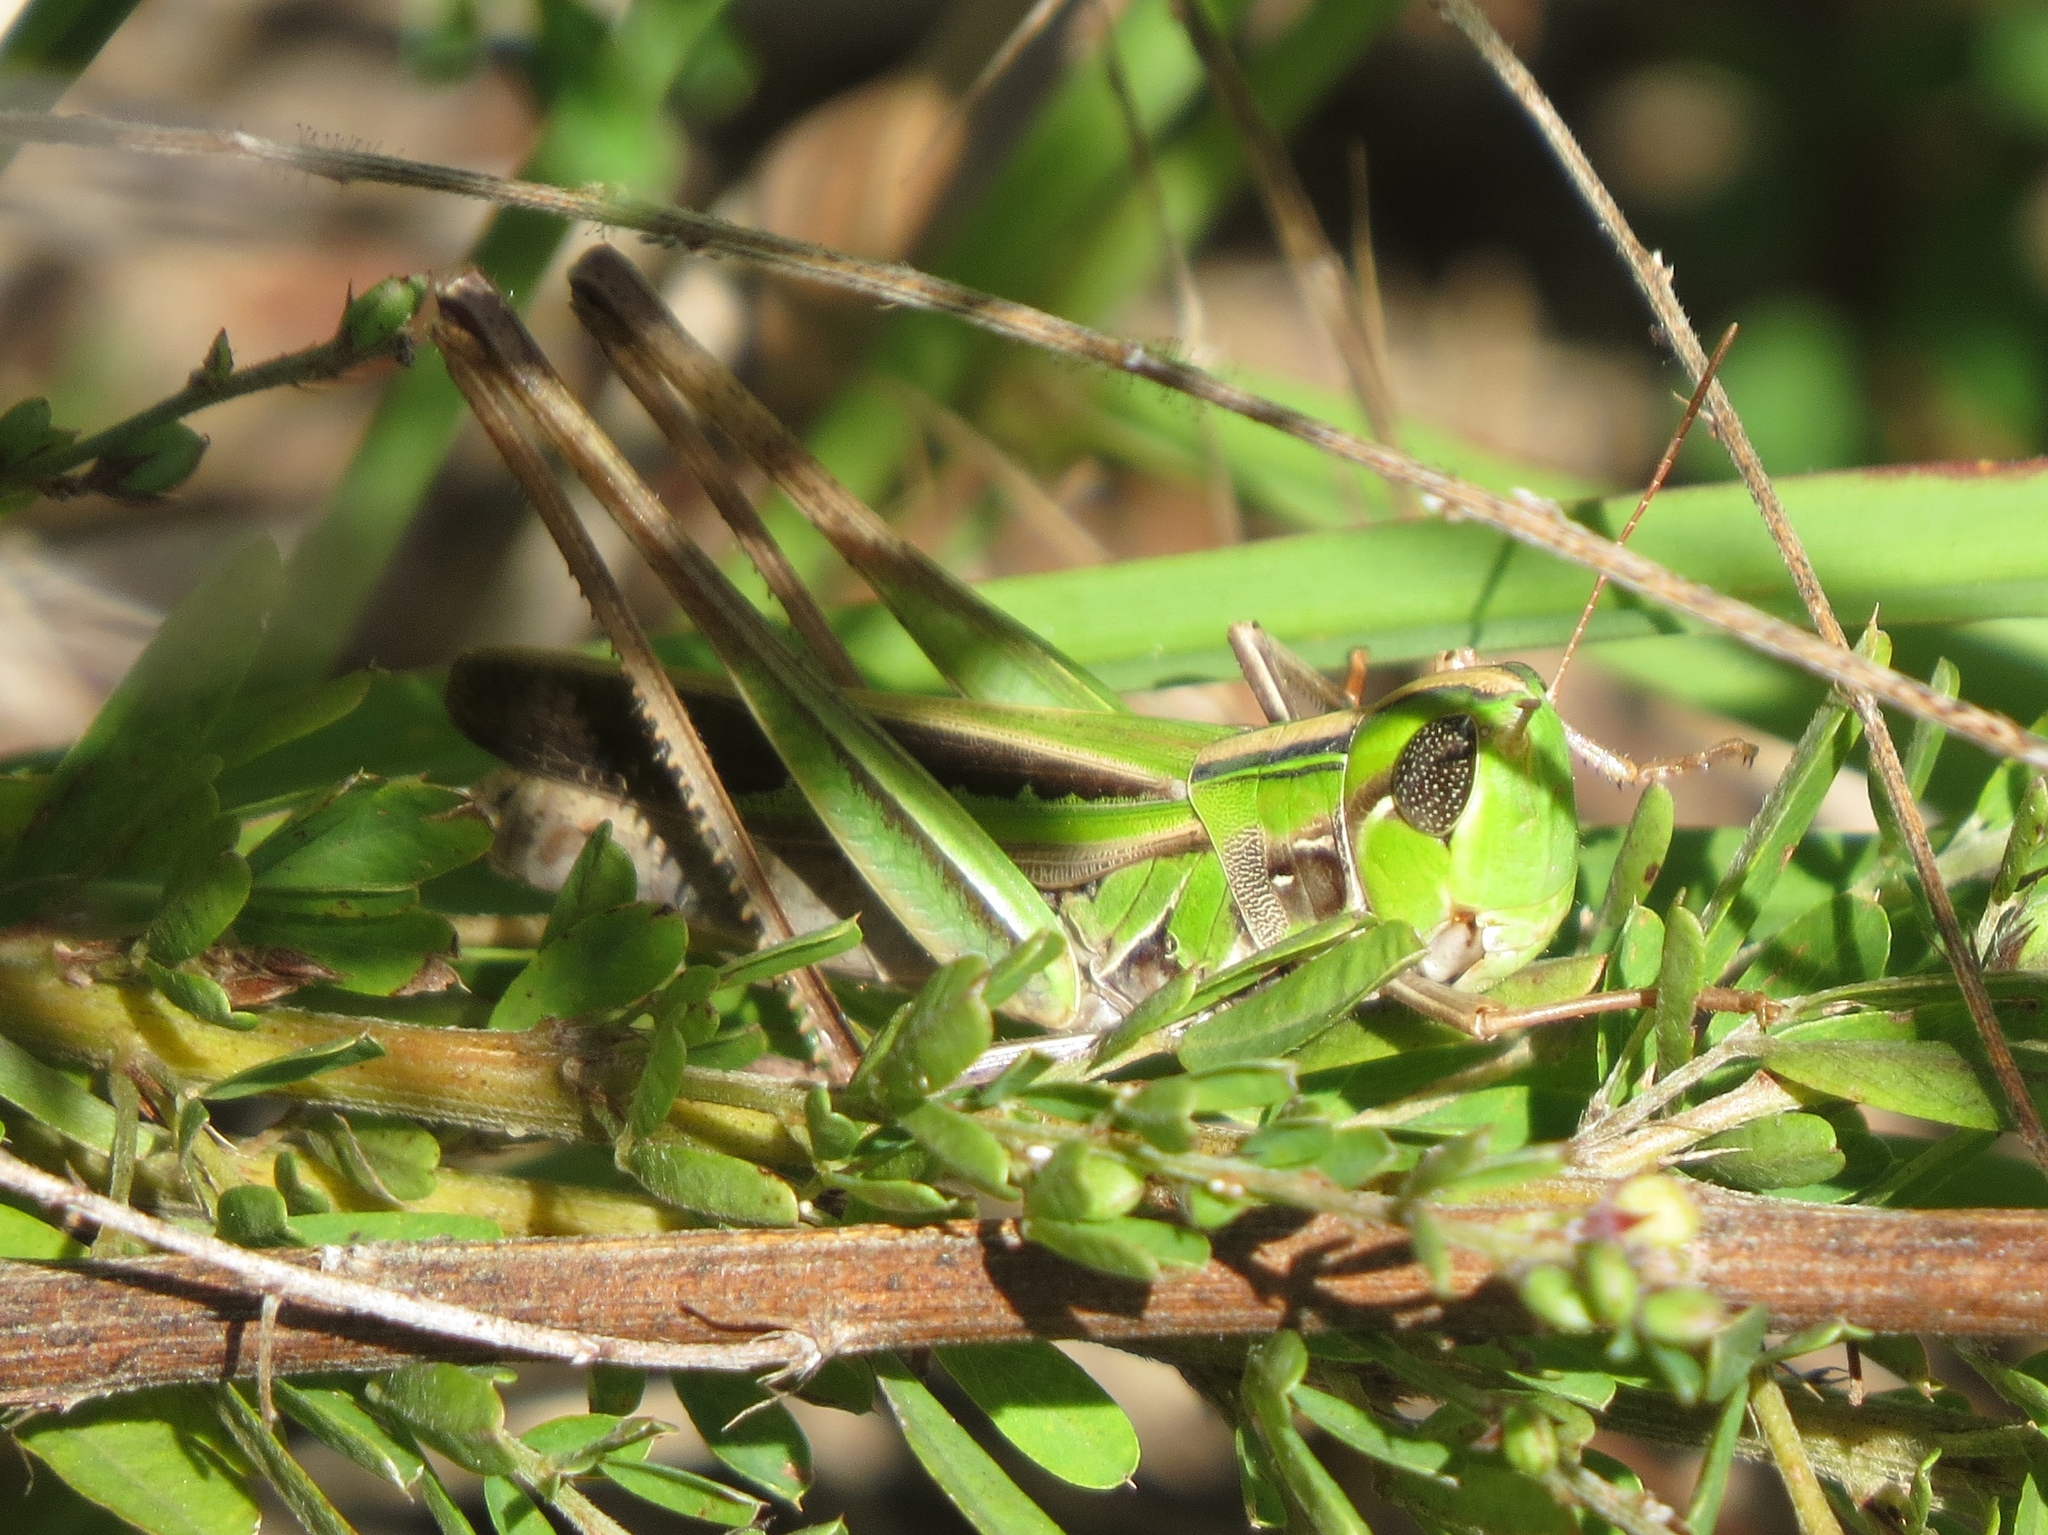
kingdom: Animalia
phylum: Arthropoda
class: Insecta
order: Orthoptera
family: Acrididae
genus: Syrbula
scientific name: Syrbula admirabilis
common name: Handsome grasshopper
